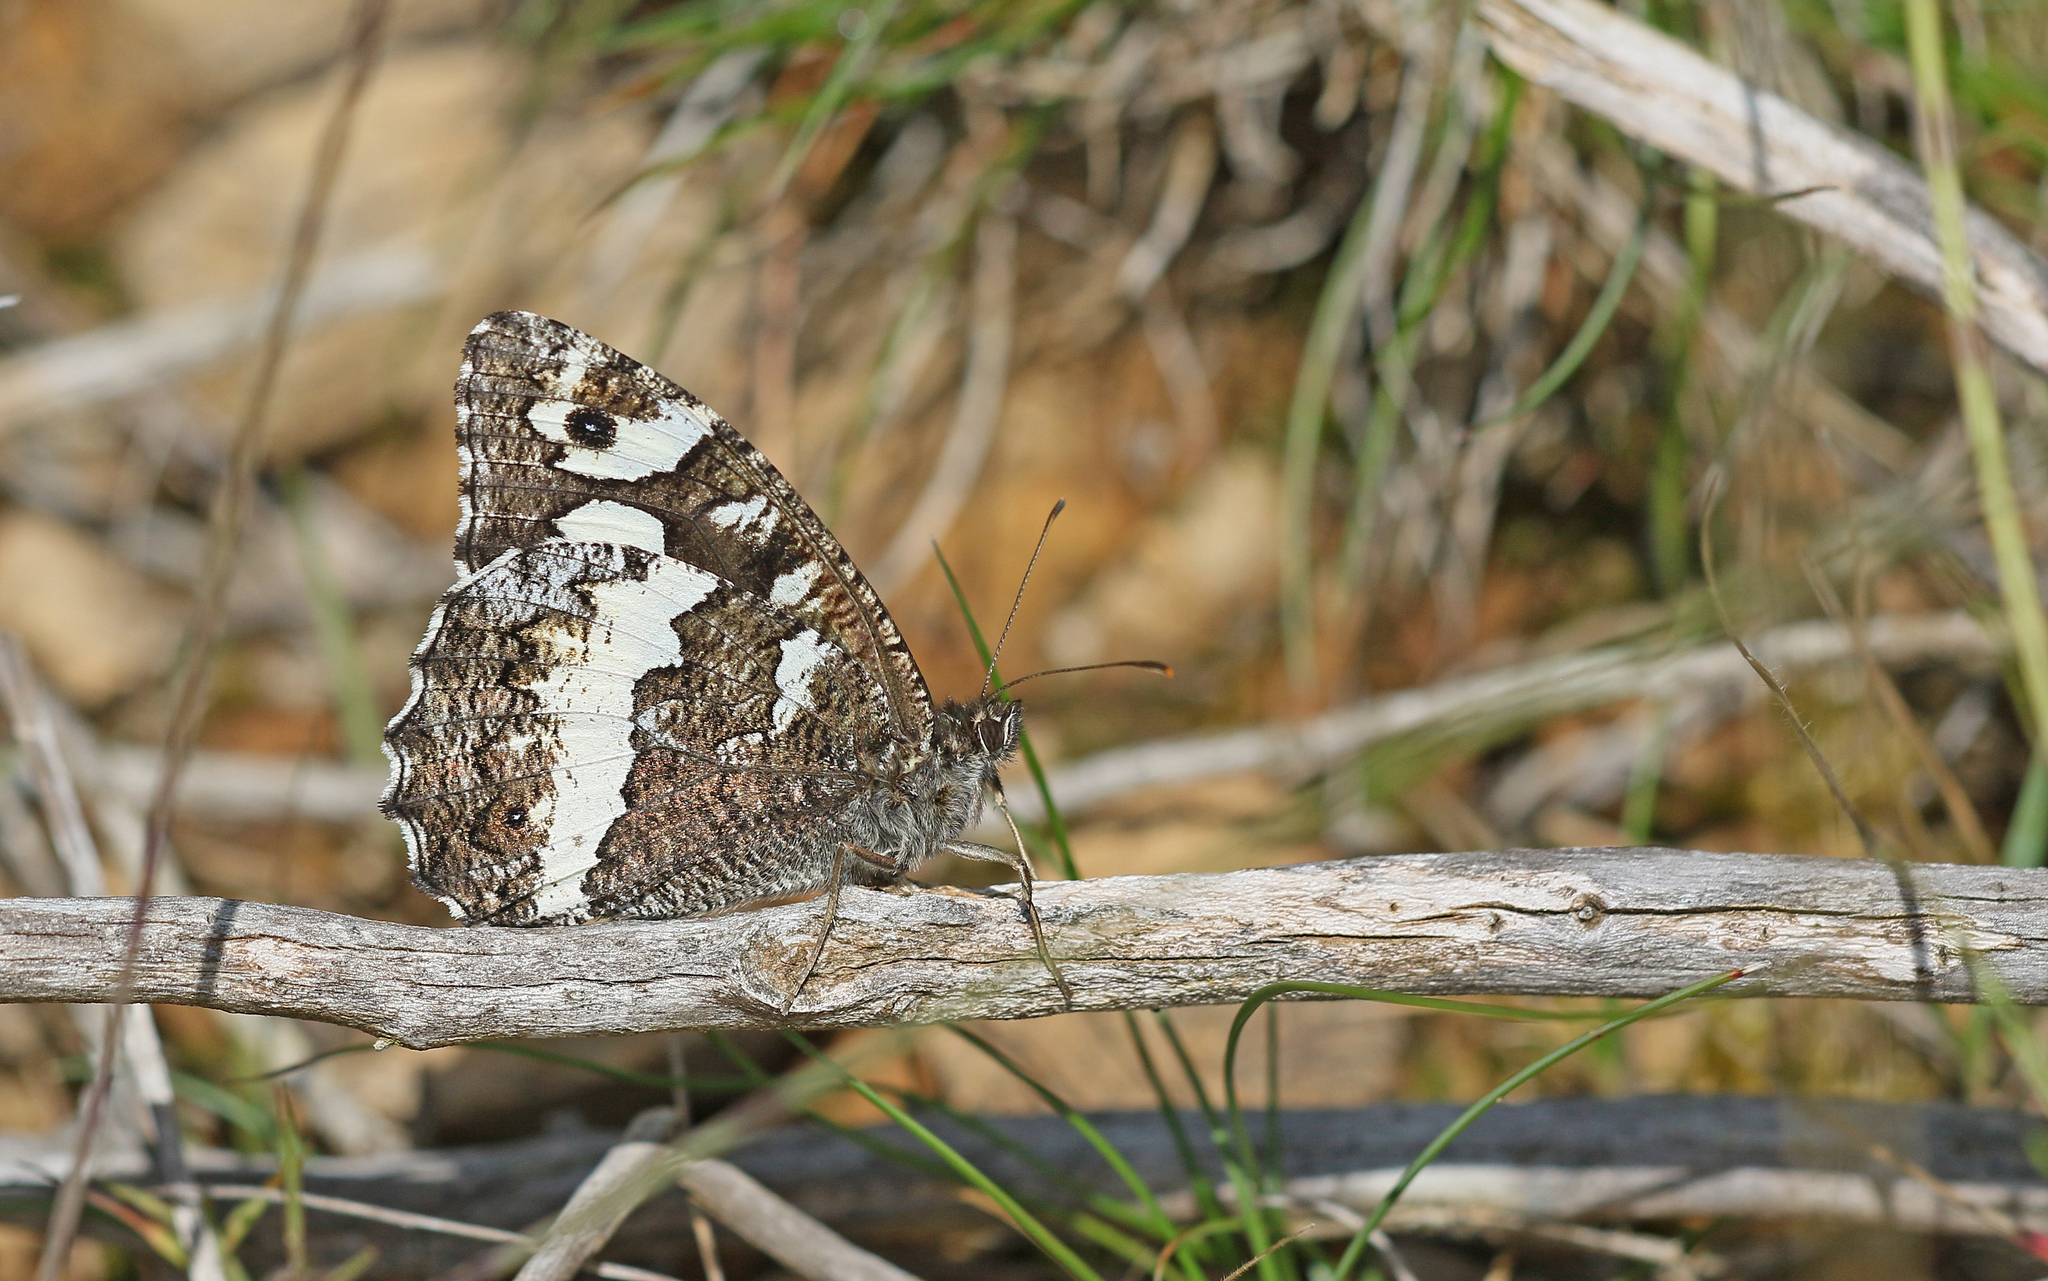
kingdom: Animalia
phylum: Arthropoda
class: Insecta
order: Lepidoptera
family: Lycaenidae
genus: Loweia
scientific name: Loweia tityrus
